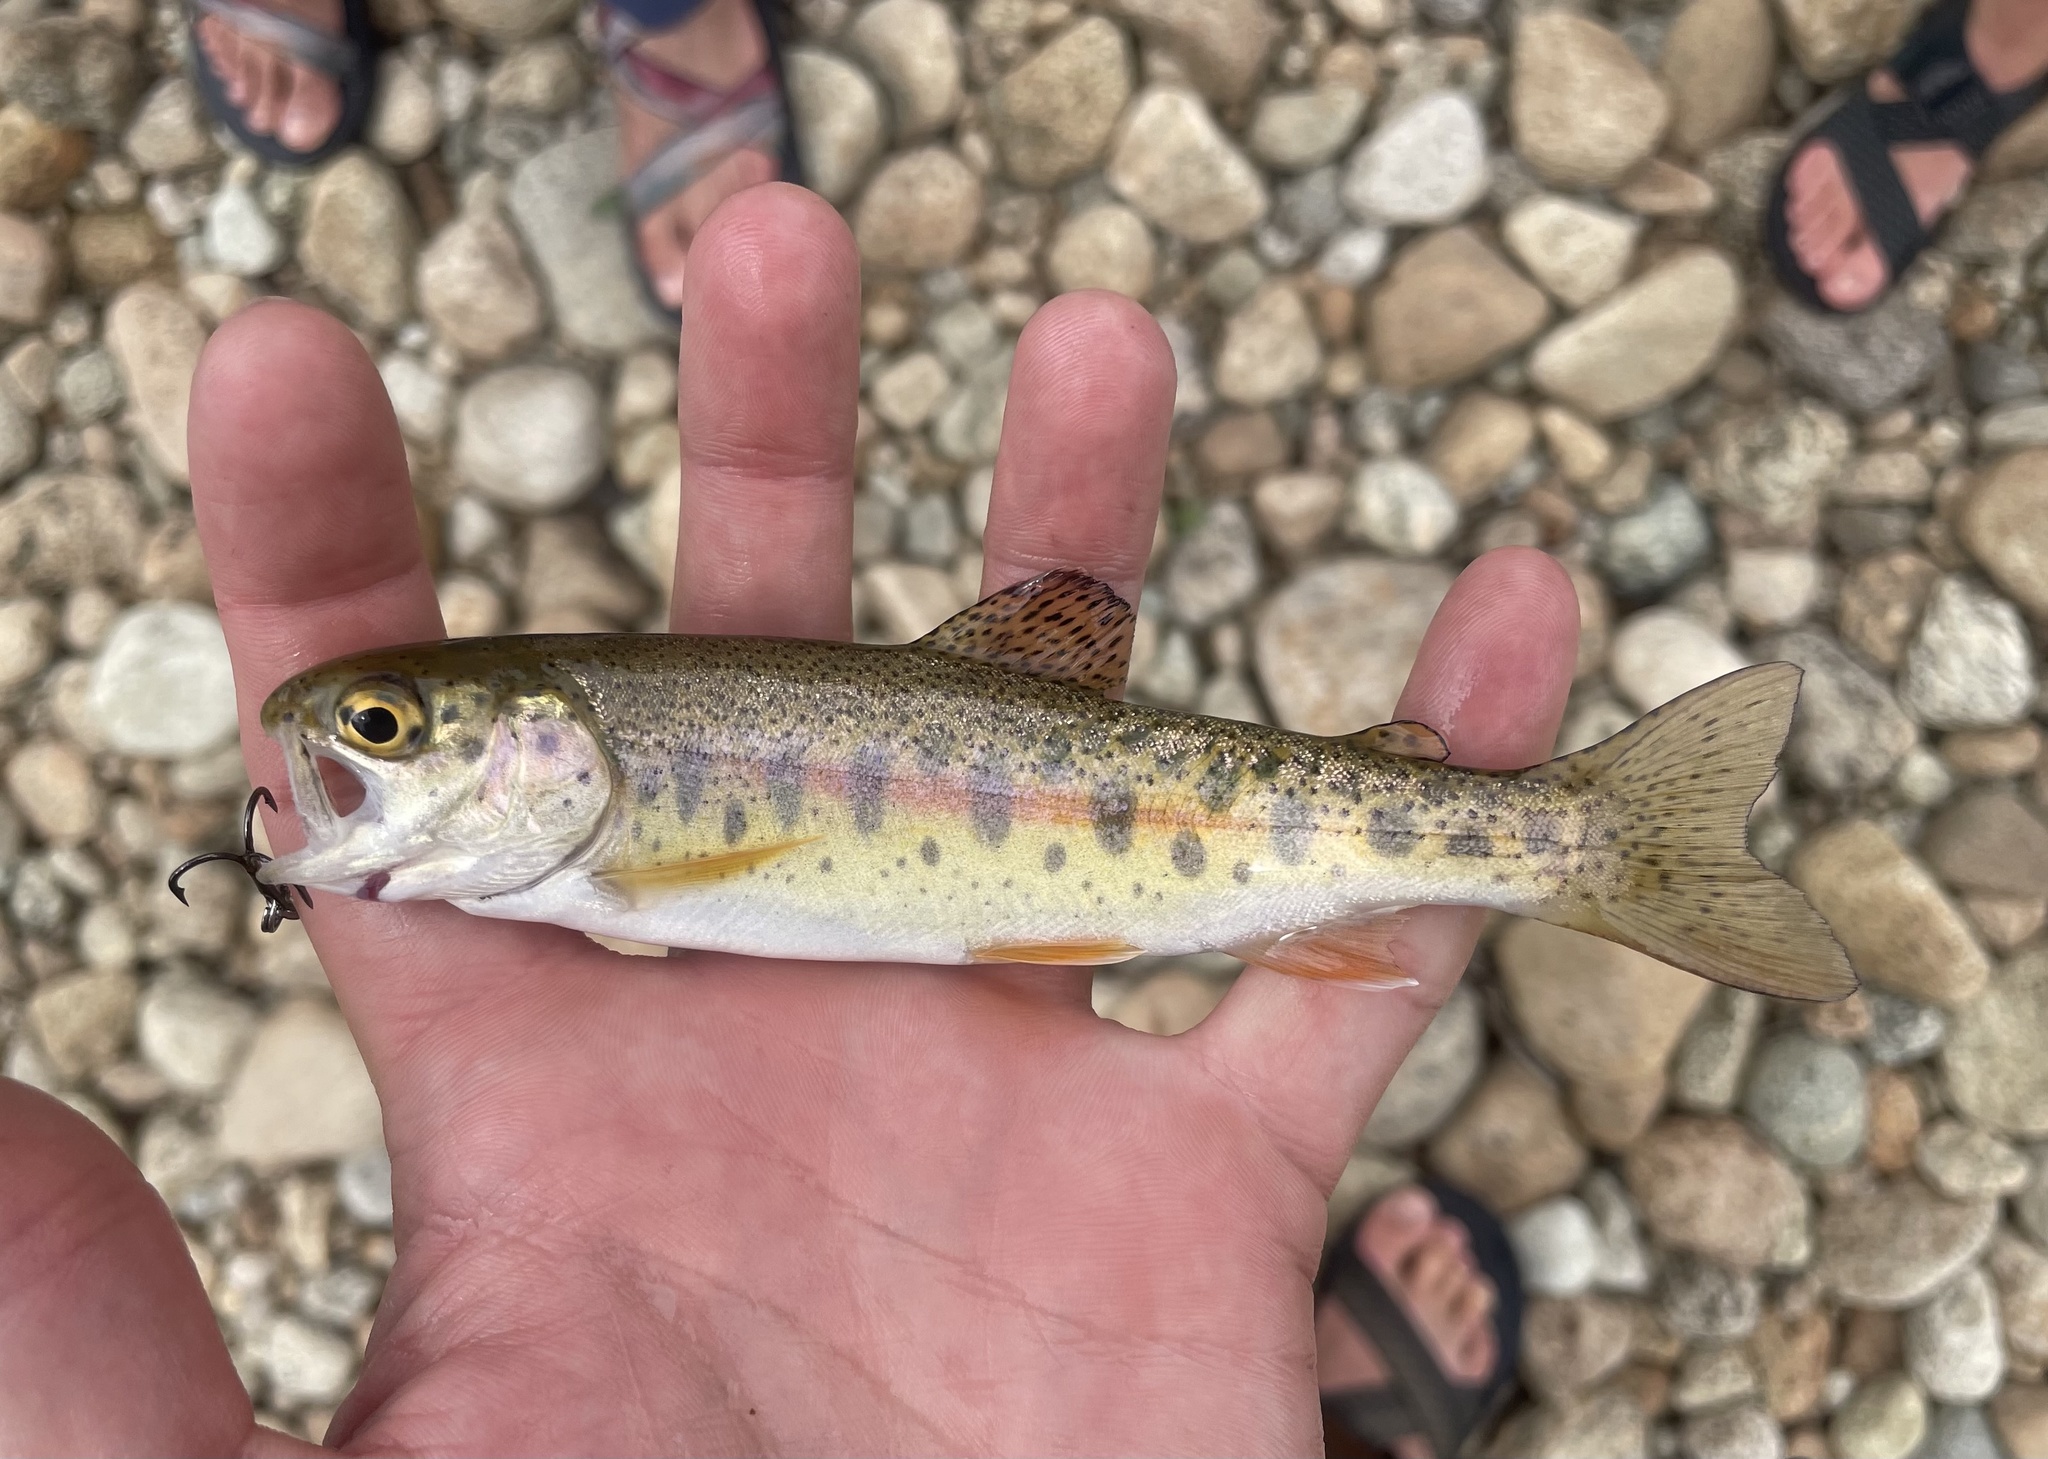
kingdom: Animalia
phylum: Chordata
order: Salmoniformes
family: Salmonidae
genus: Oncorhynchus
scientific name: Oncorhynchus mykiss
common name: Rainbow trout
